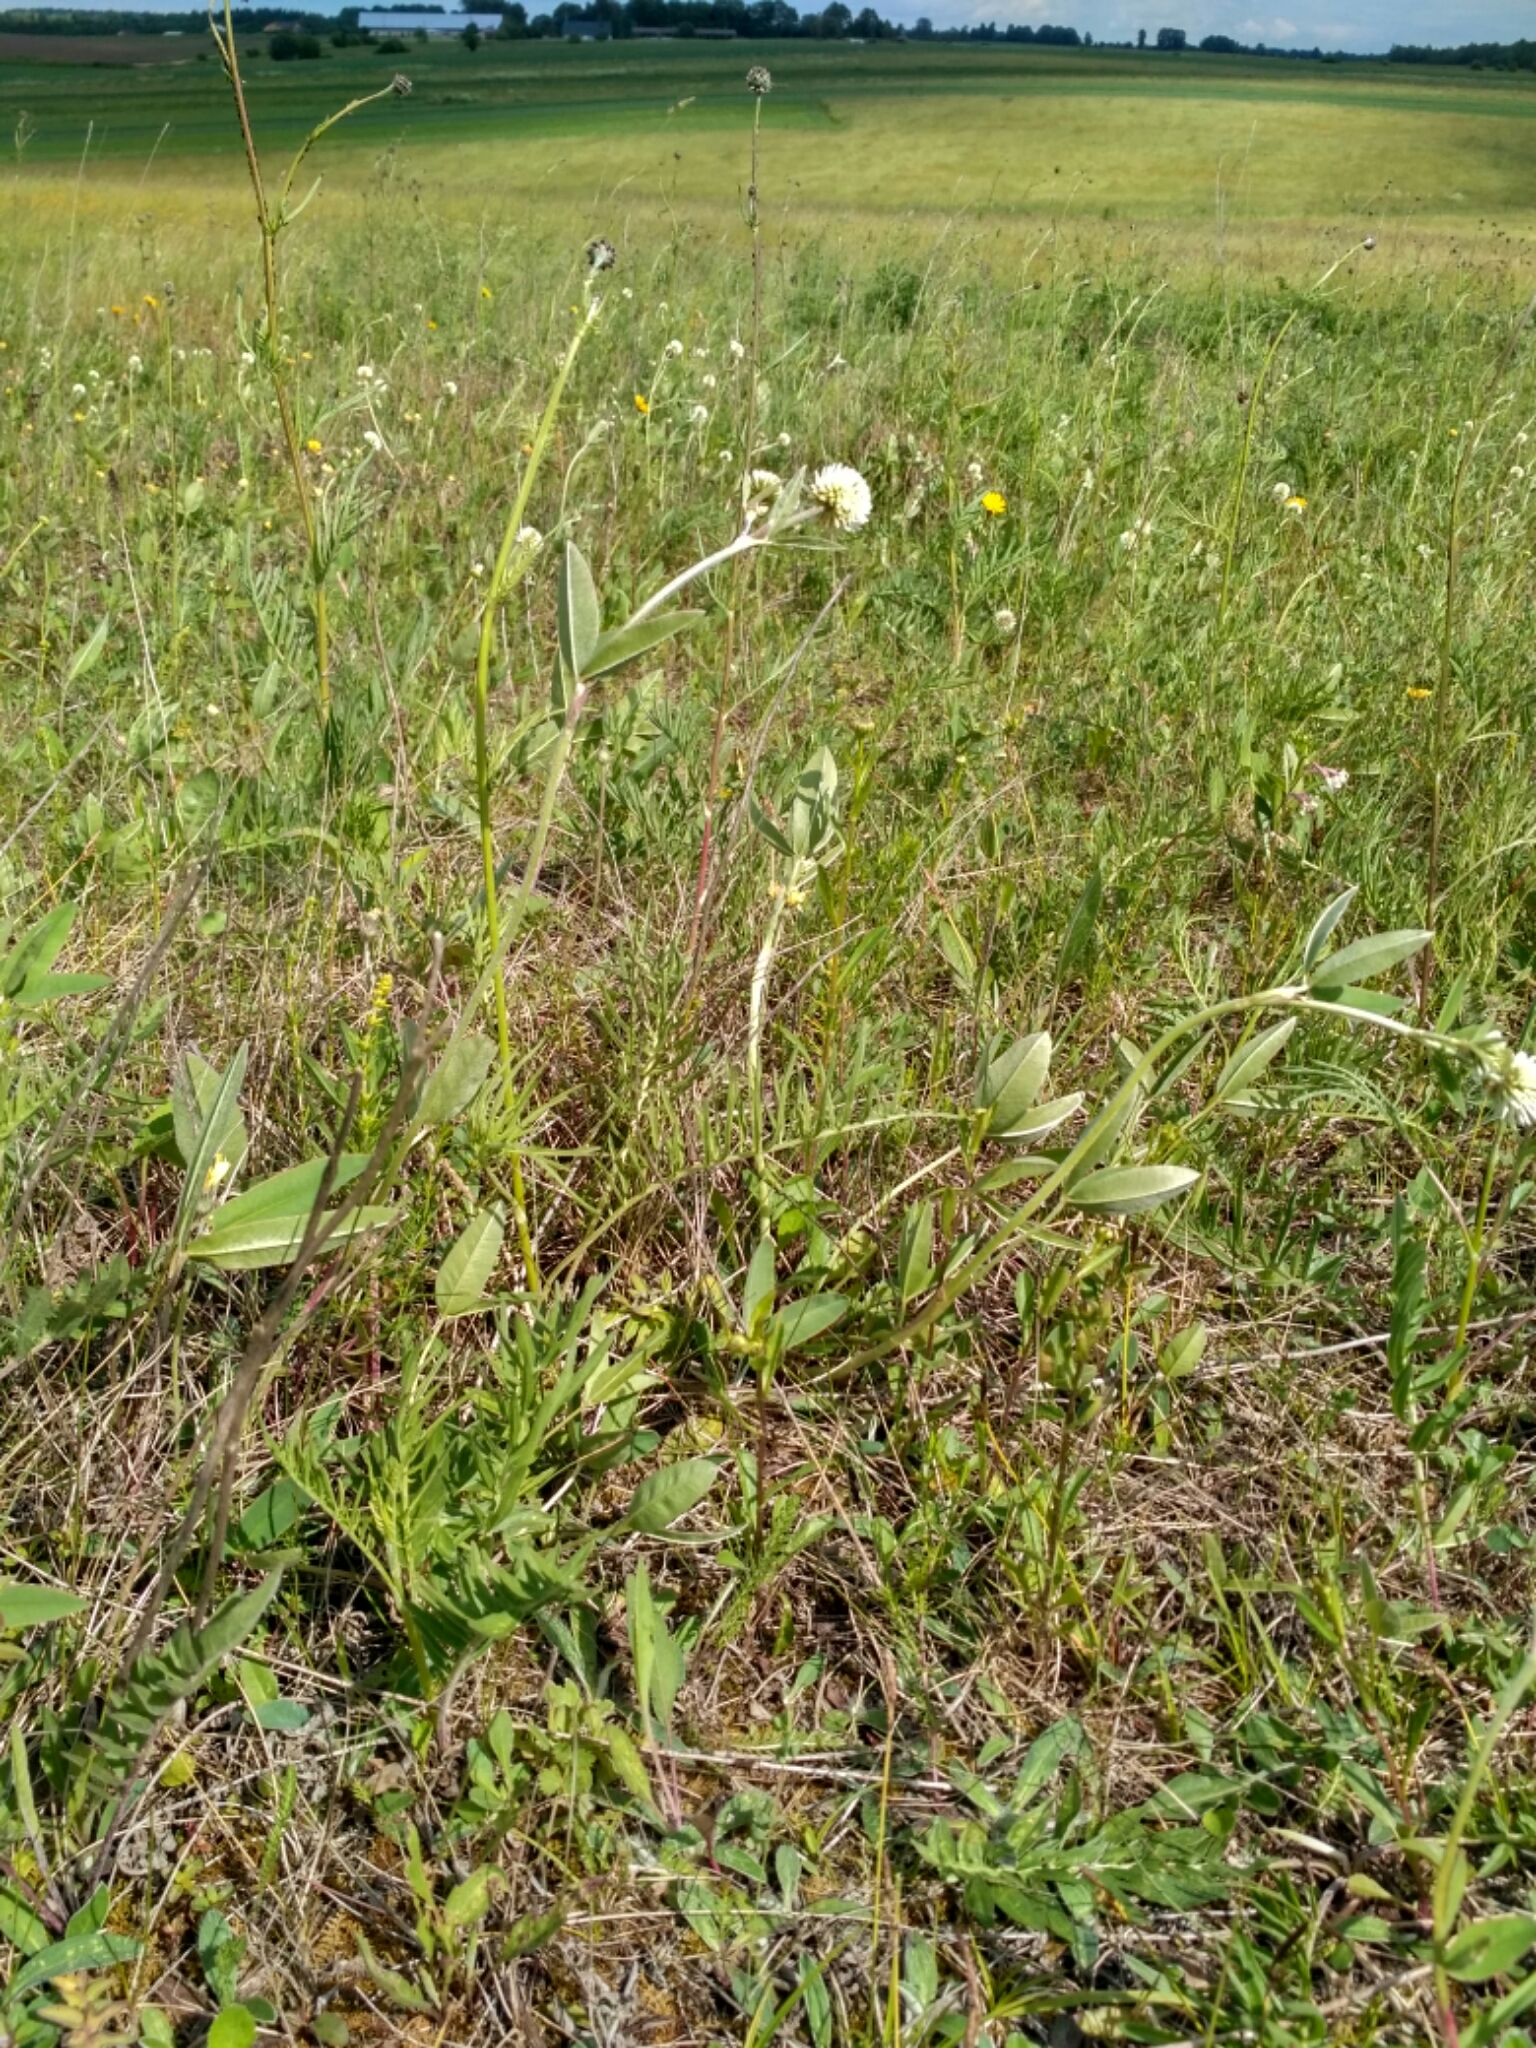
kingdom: Plantae
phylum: Tracheophyta
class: Magnoliopsida
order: Fabales
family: Fabaceae
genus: Trifolium
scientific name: Trifolium montanum
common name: Mountain clover
